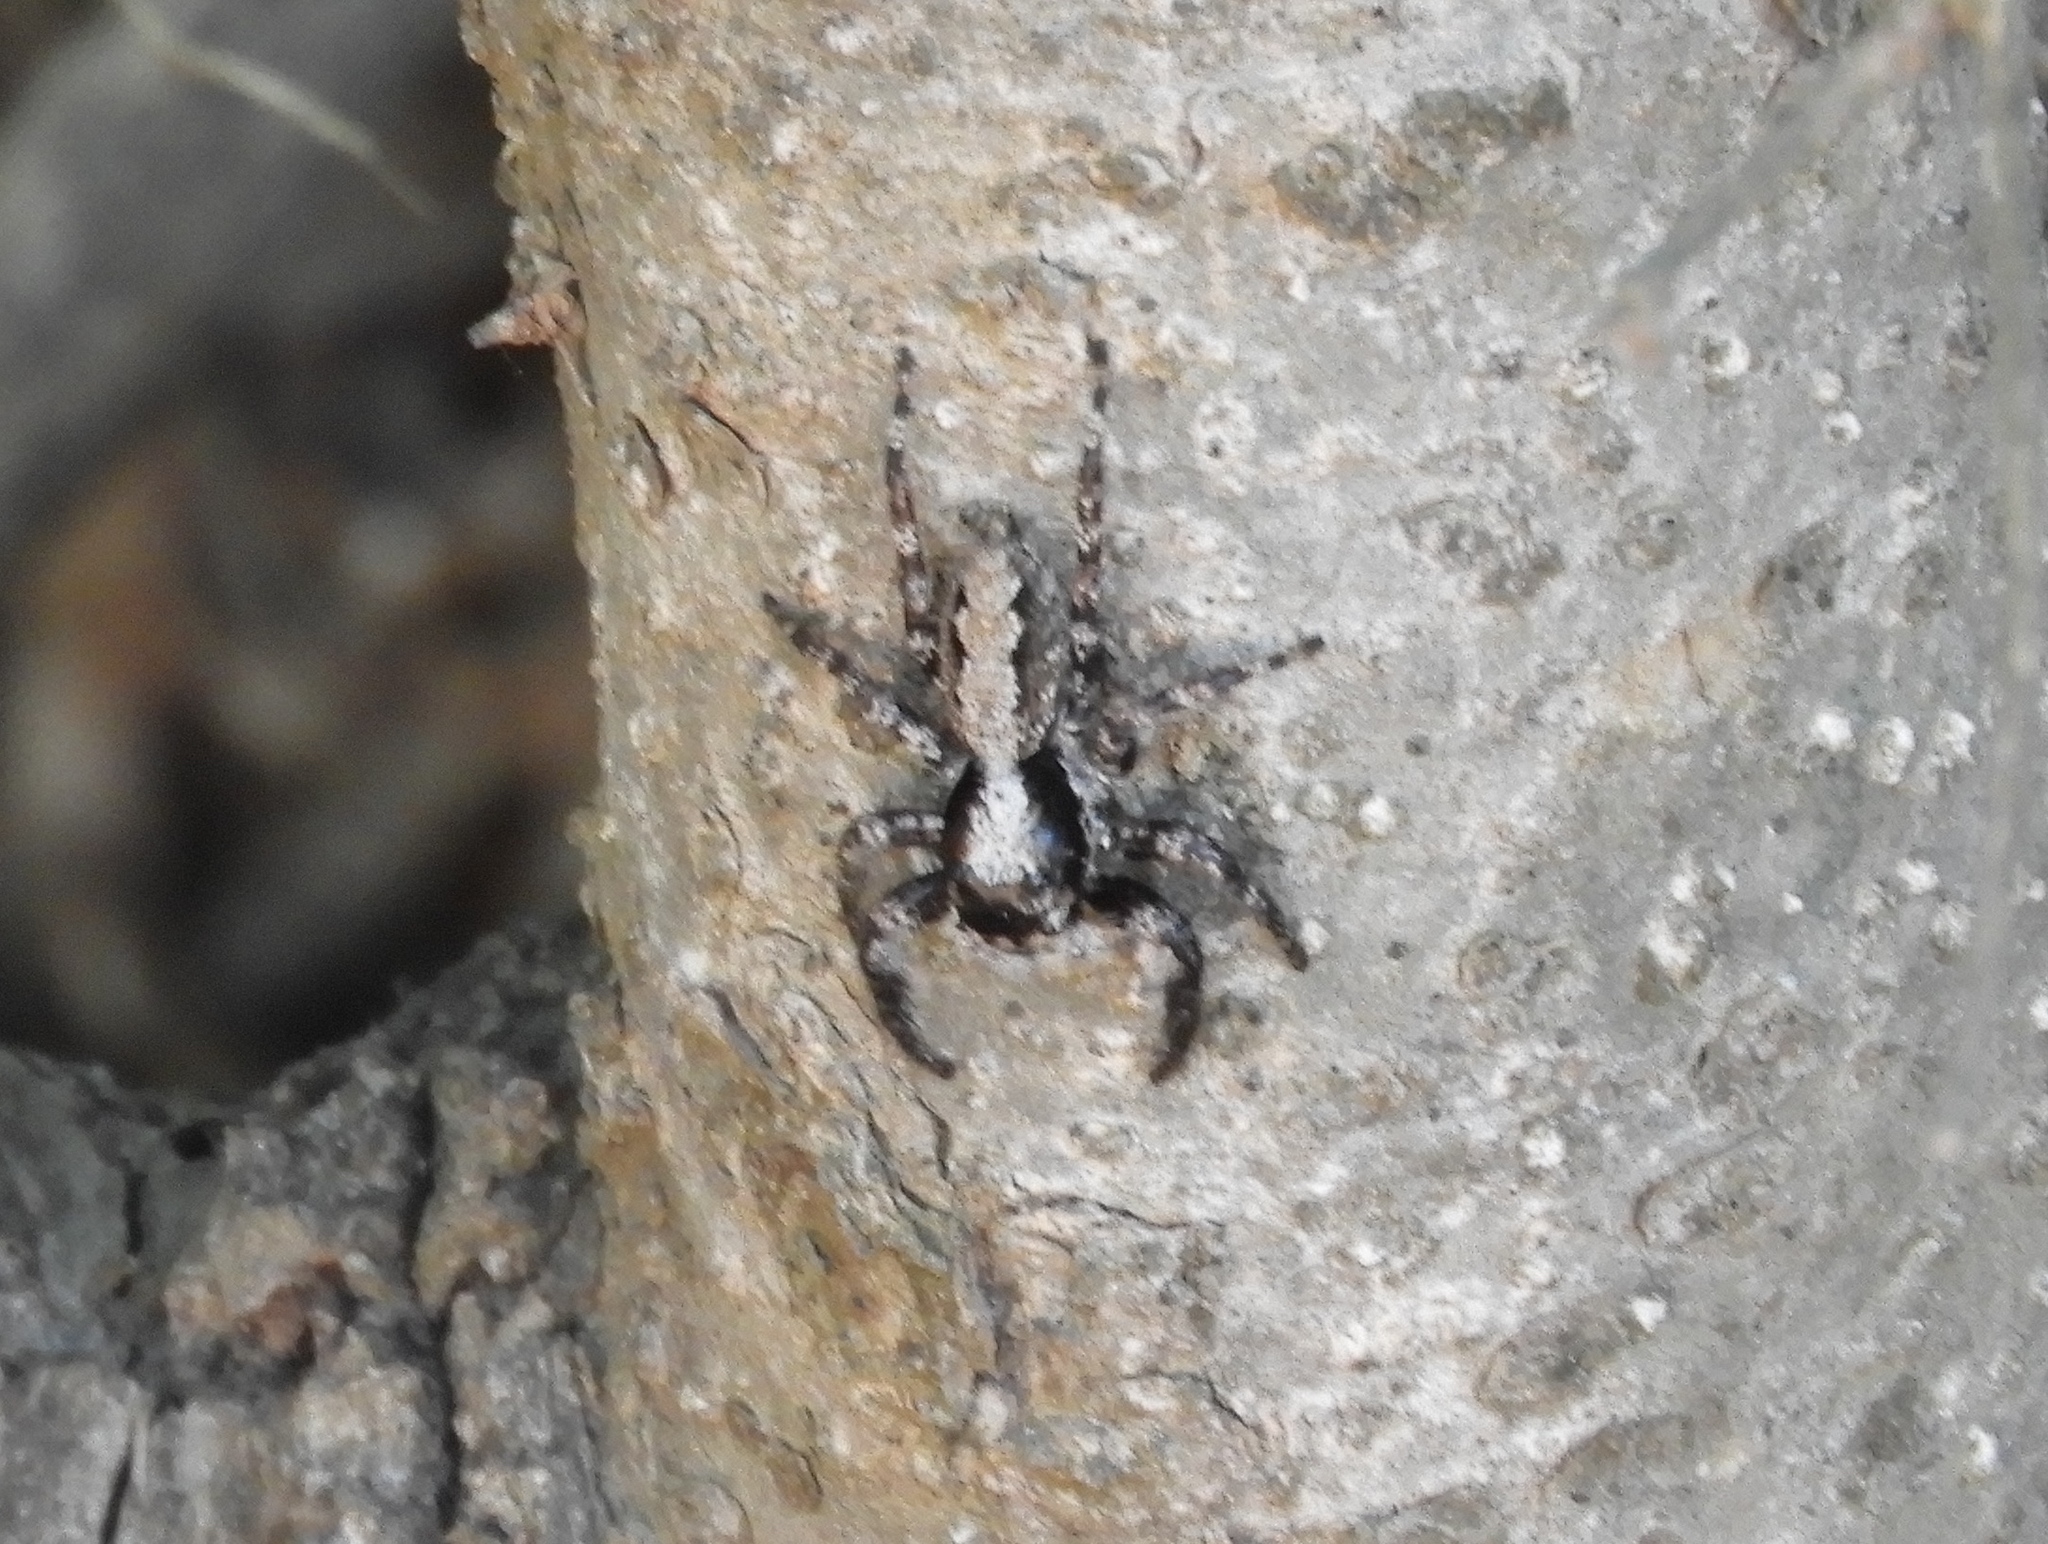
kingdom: Animalia
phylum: Arthropoda
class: Arachnida
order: Araneae
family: Salticidae
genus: Balmaceda
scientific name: Balmaceda
